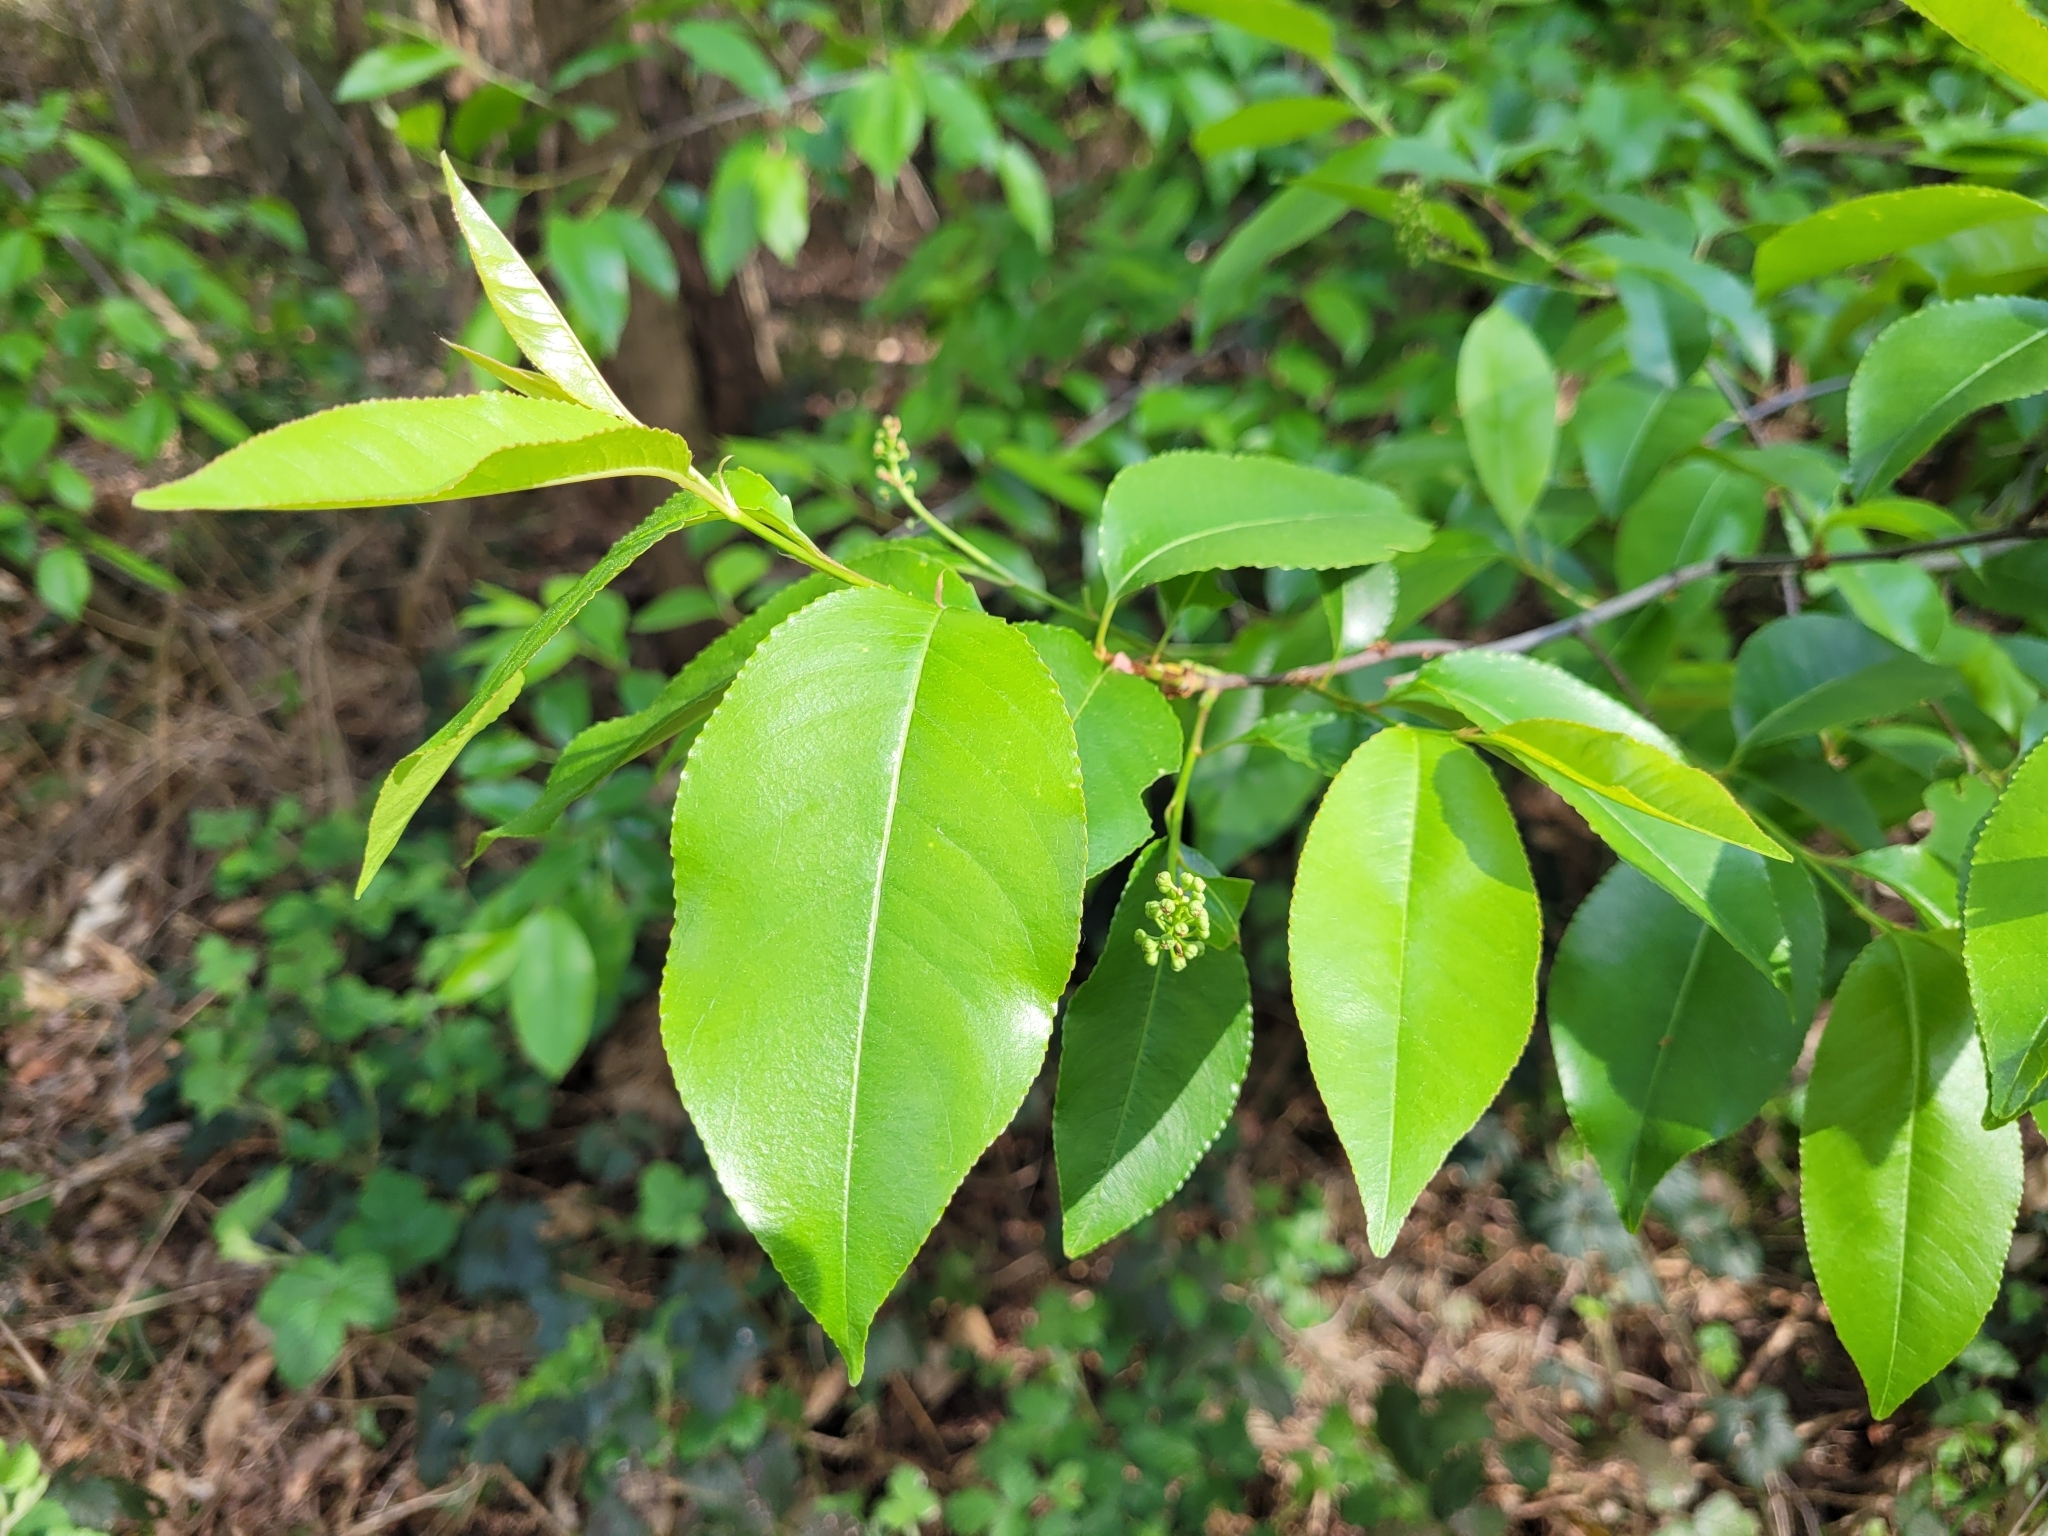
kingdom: Plantae
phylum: Tracheophyta
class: Magnoliopsida
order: Rosales
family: Rosaceae
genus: Prunus
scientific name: Prunus serotina
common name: Black cherry
